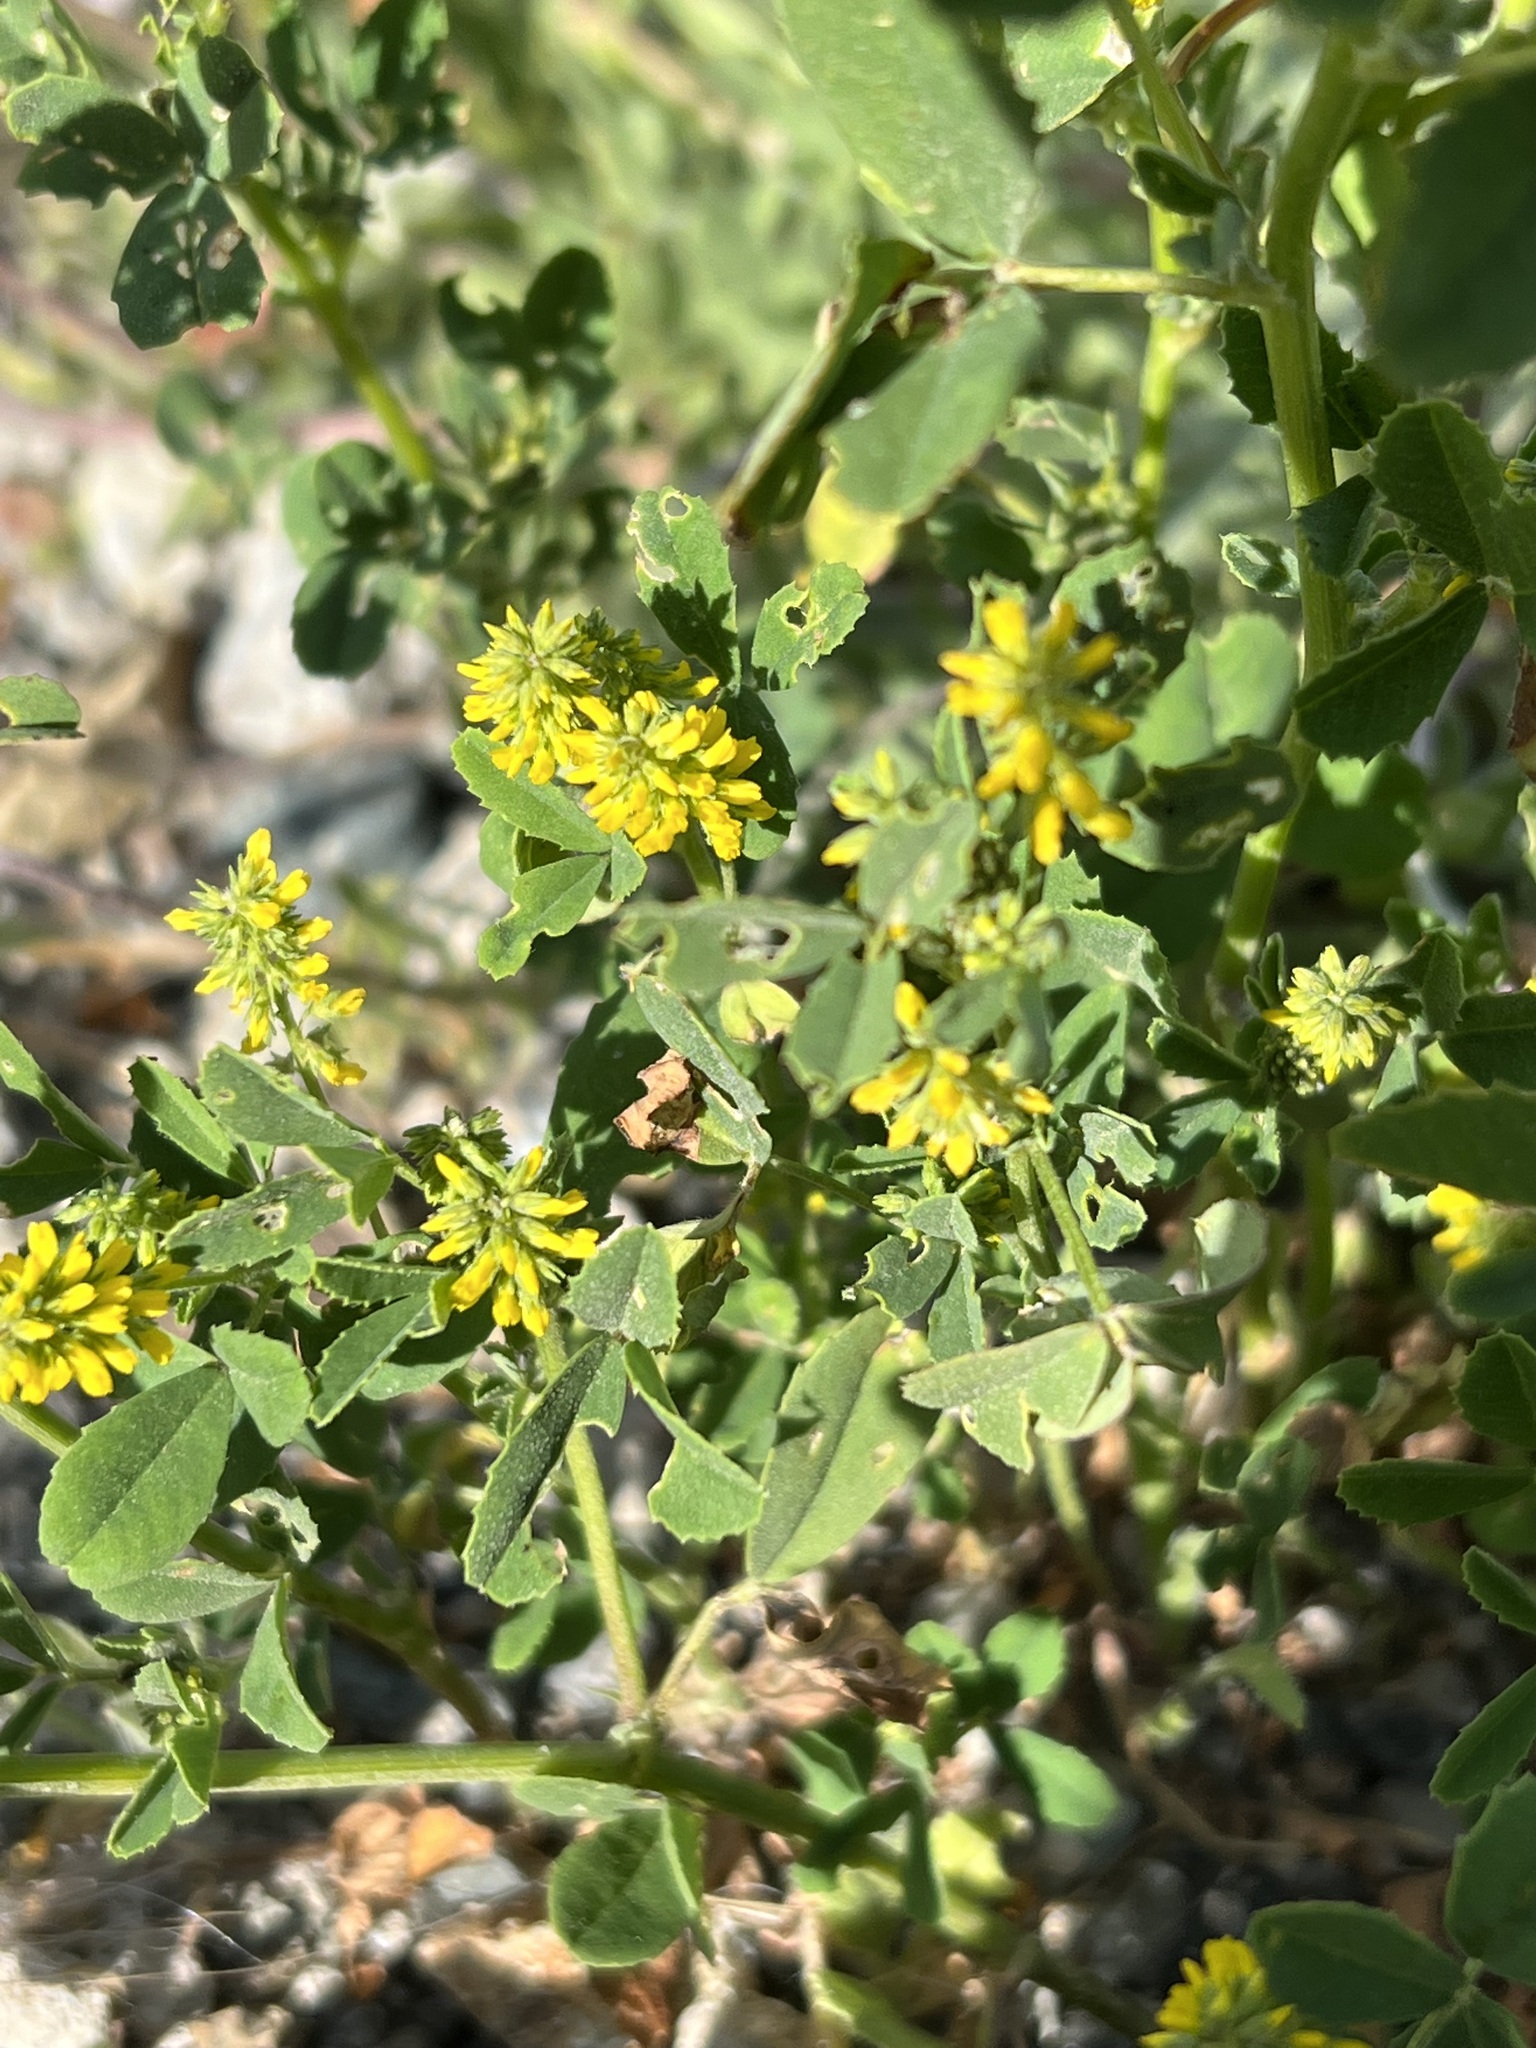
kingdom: Plantae
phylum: Tracheophyta
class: Magnoliopsida
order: Fabales
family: Fabaceae
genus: Melilotus
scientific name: Melilotus indicus
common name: Small melilot
